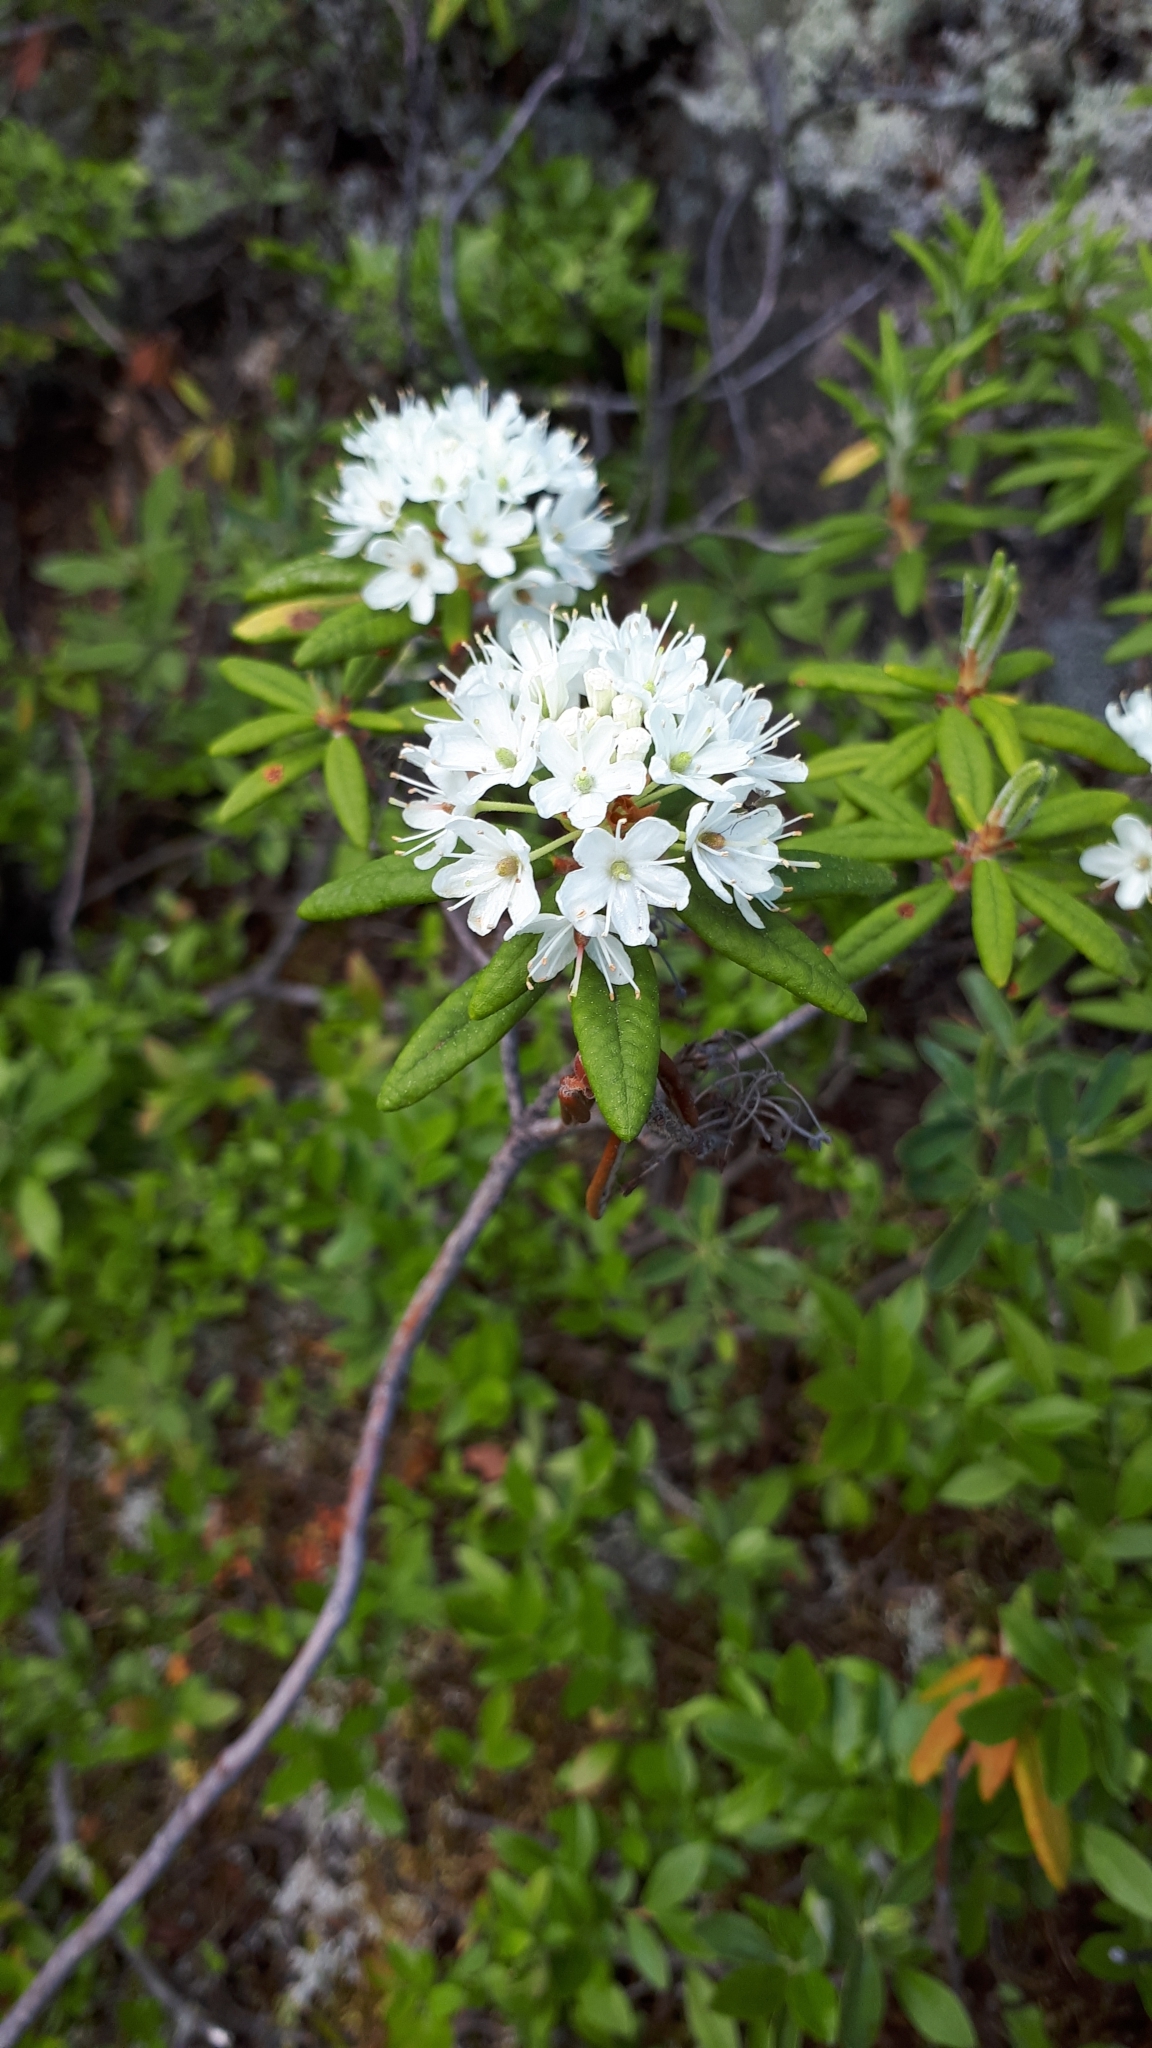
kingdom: Plantae
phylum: Tracheophyta
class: Magnoliopsida
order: Ericales
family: Ericaceae
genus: Rhododendron
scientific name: Rhododendron groenlandicum
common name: Bog labrador tea
